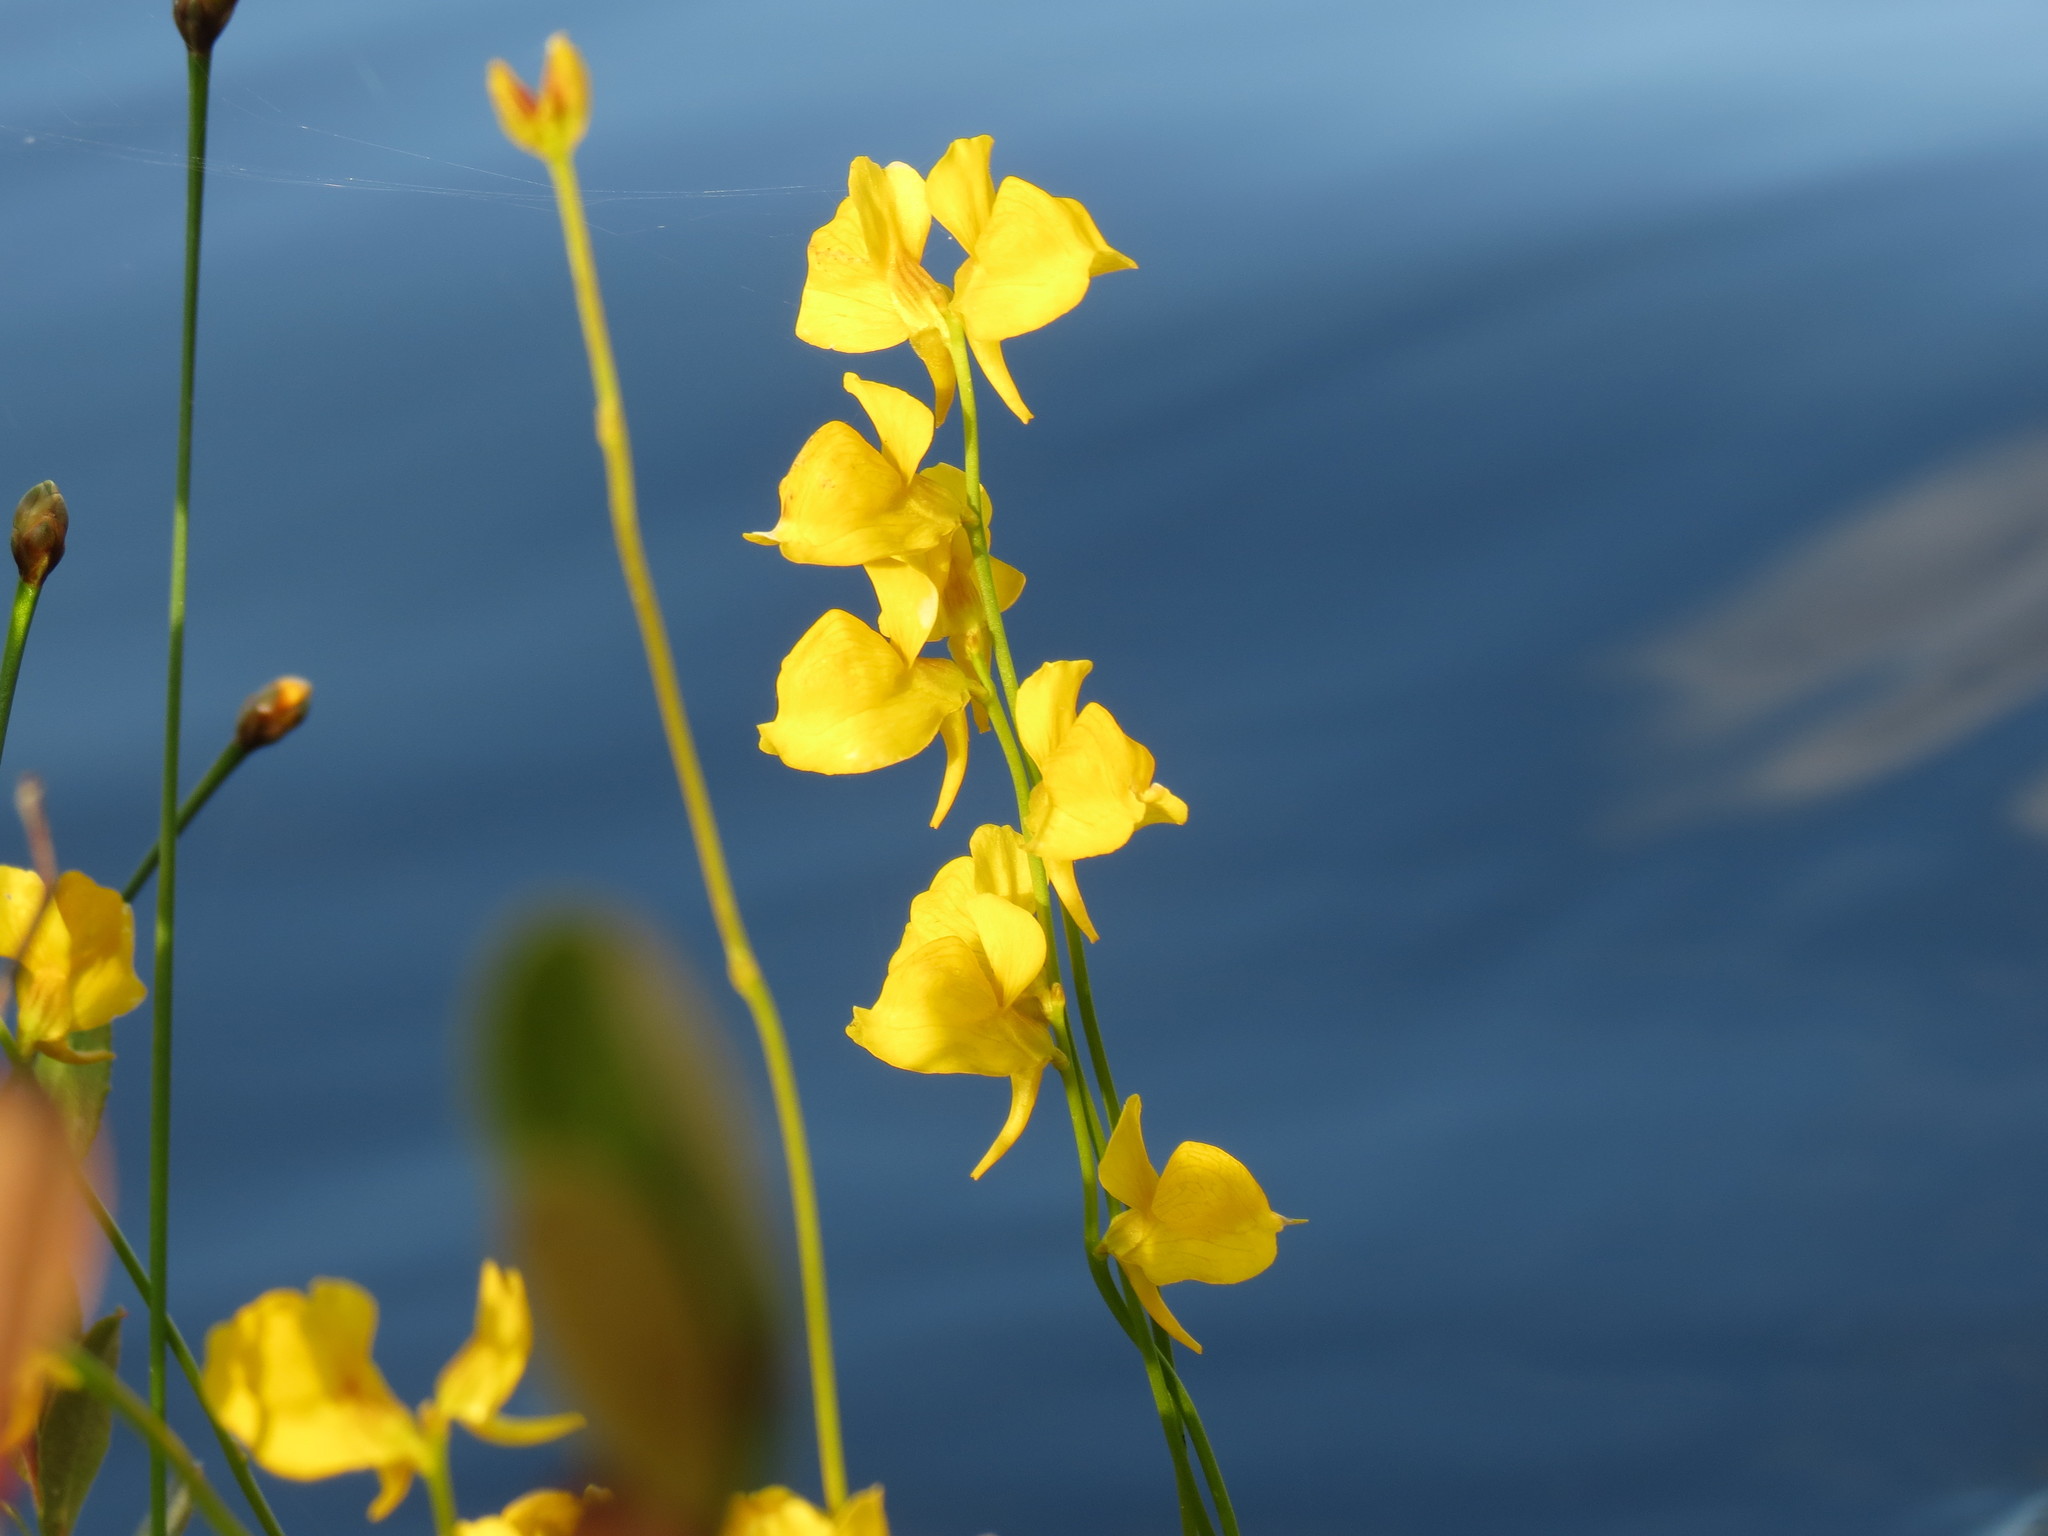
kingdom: Plantae
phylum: Tracheophyta
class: Magnoliopsida
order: Lamiales
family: Lentibulariaceae
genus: Utricularia
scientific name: Utricularia cornuta
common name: Horned bladderwort
